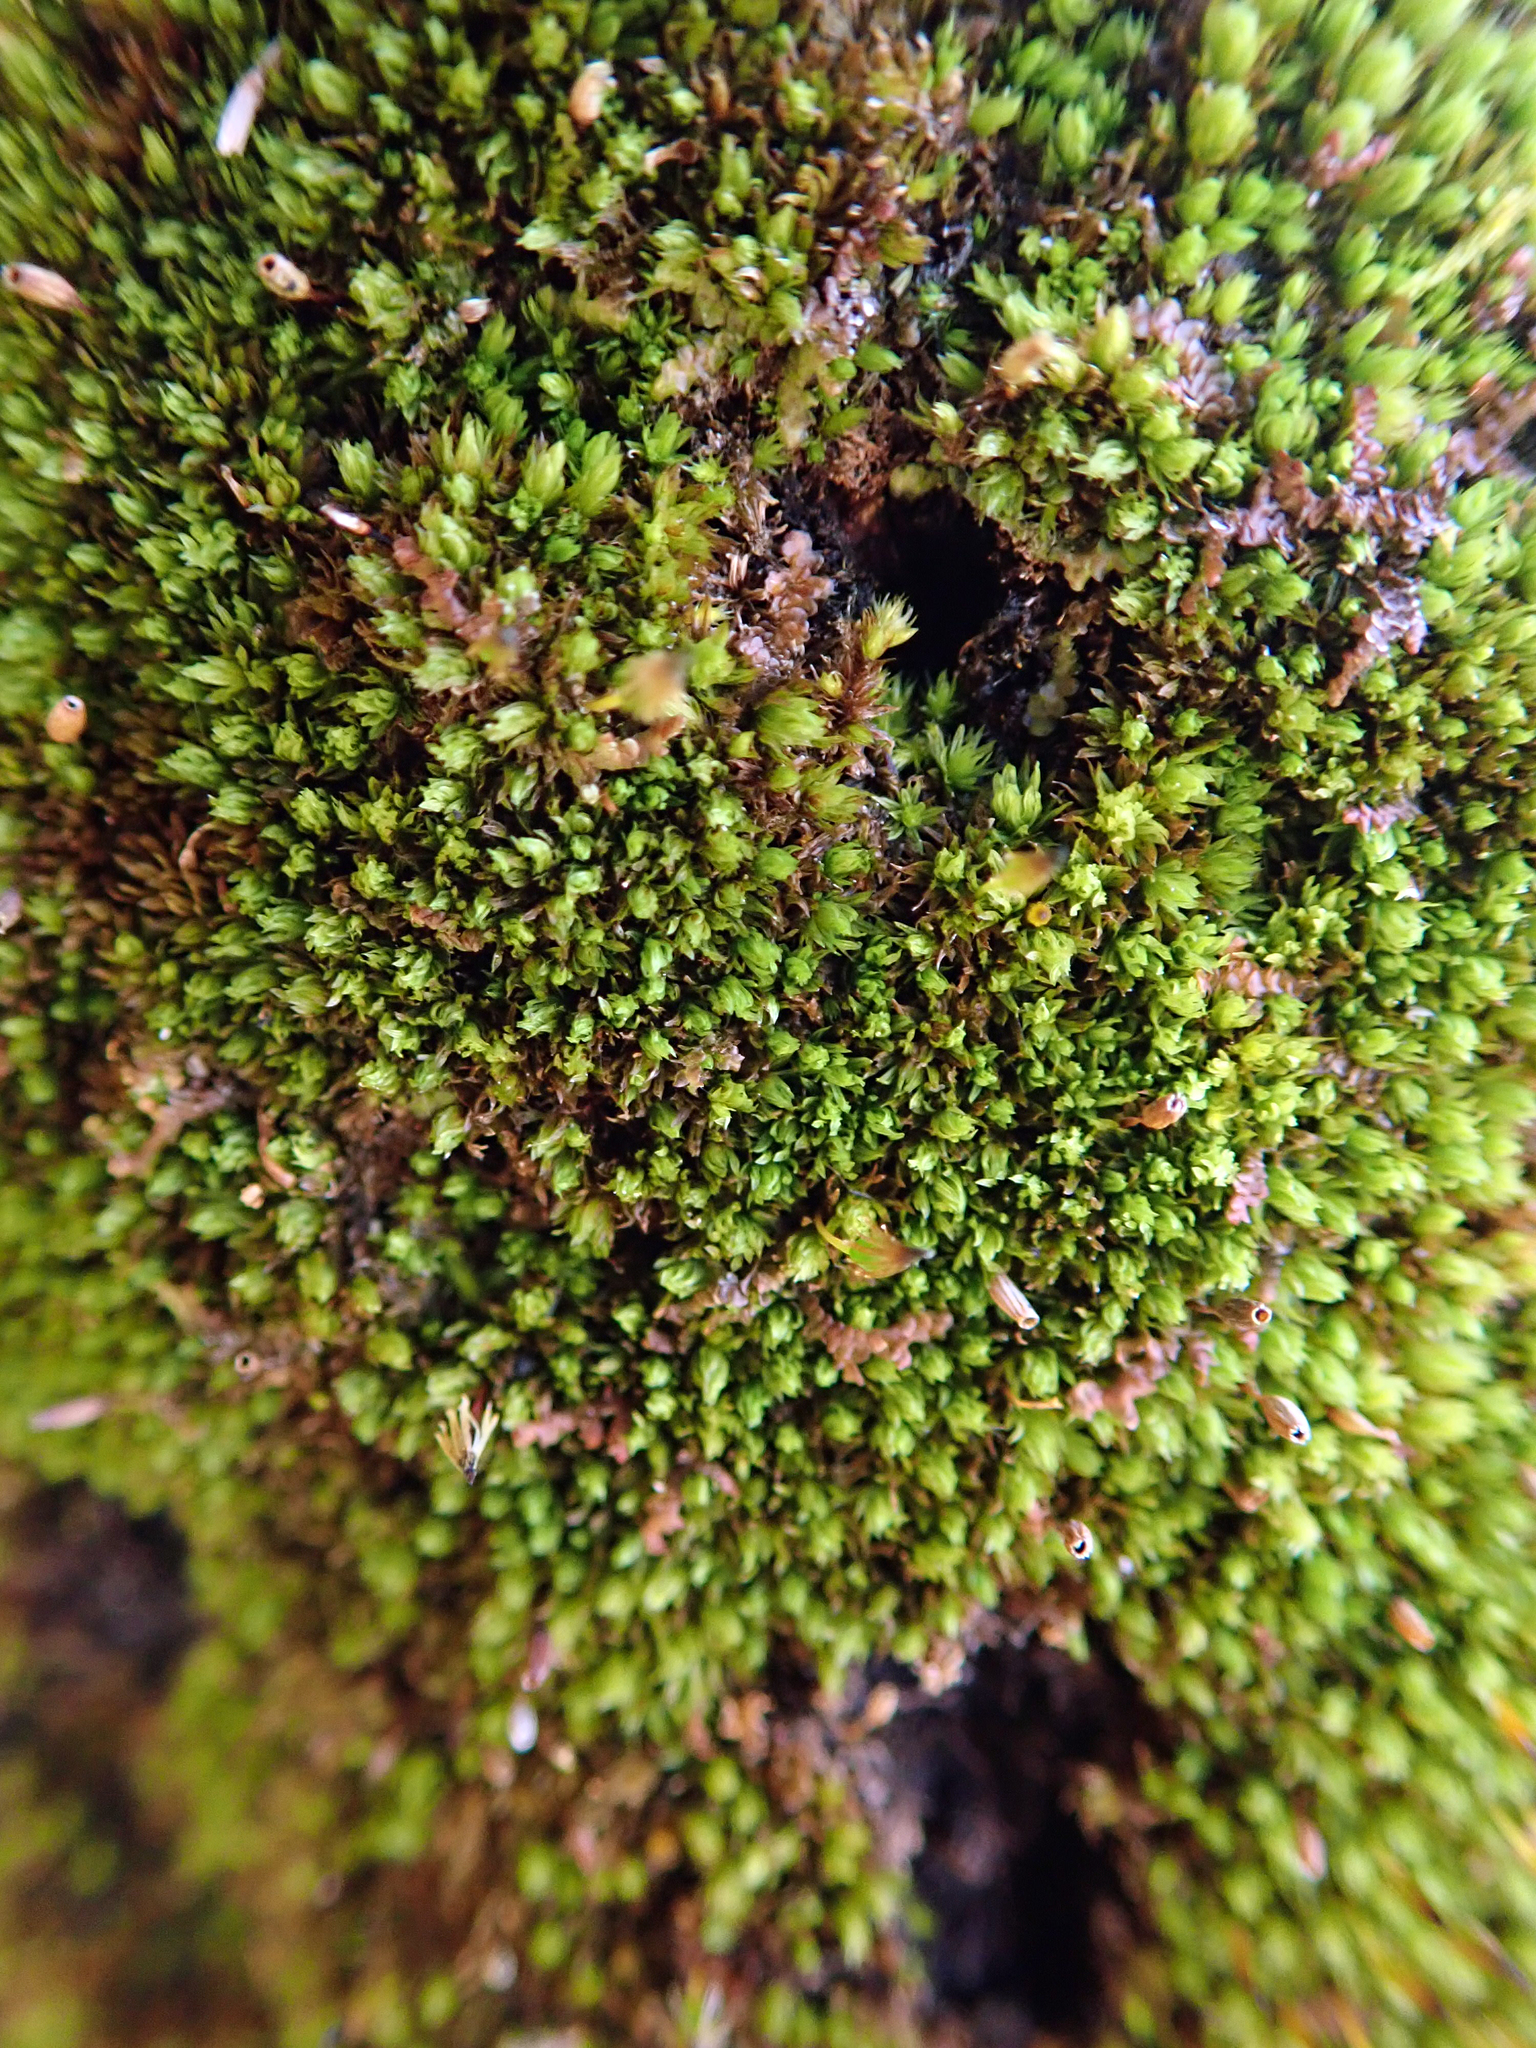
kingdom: Plantae
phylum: Bryophyta
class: Bryopsida
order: Orthotrichales
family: Orthotrichaceae
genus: Macromitrium
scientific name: Macromitrium longirostre
